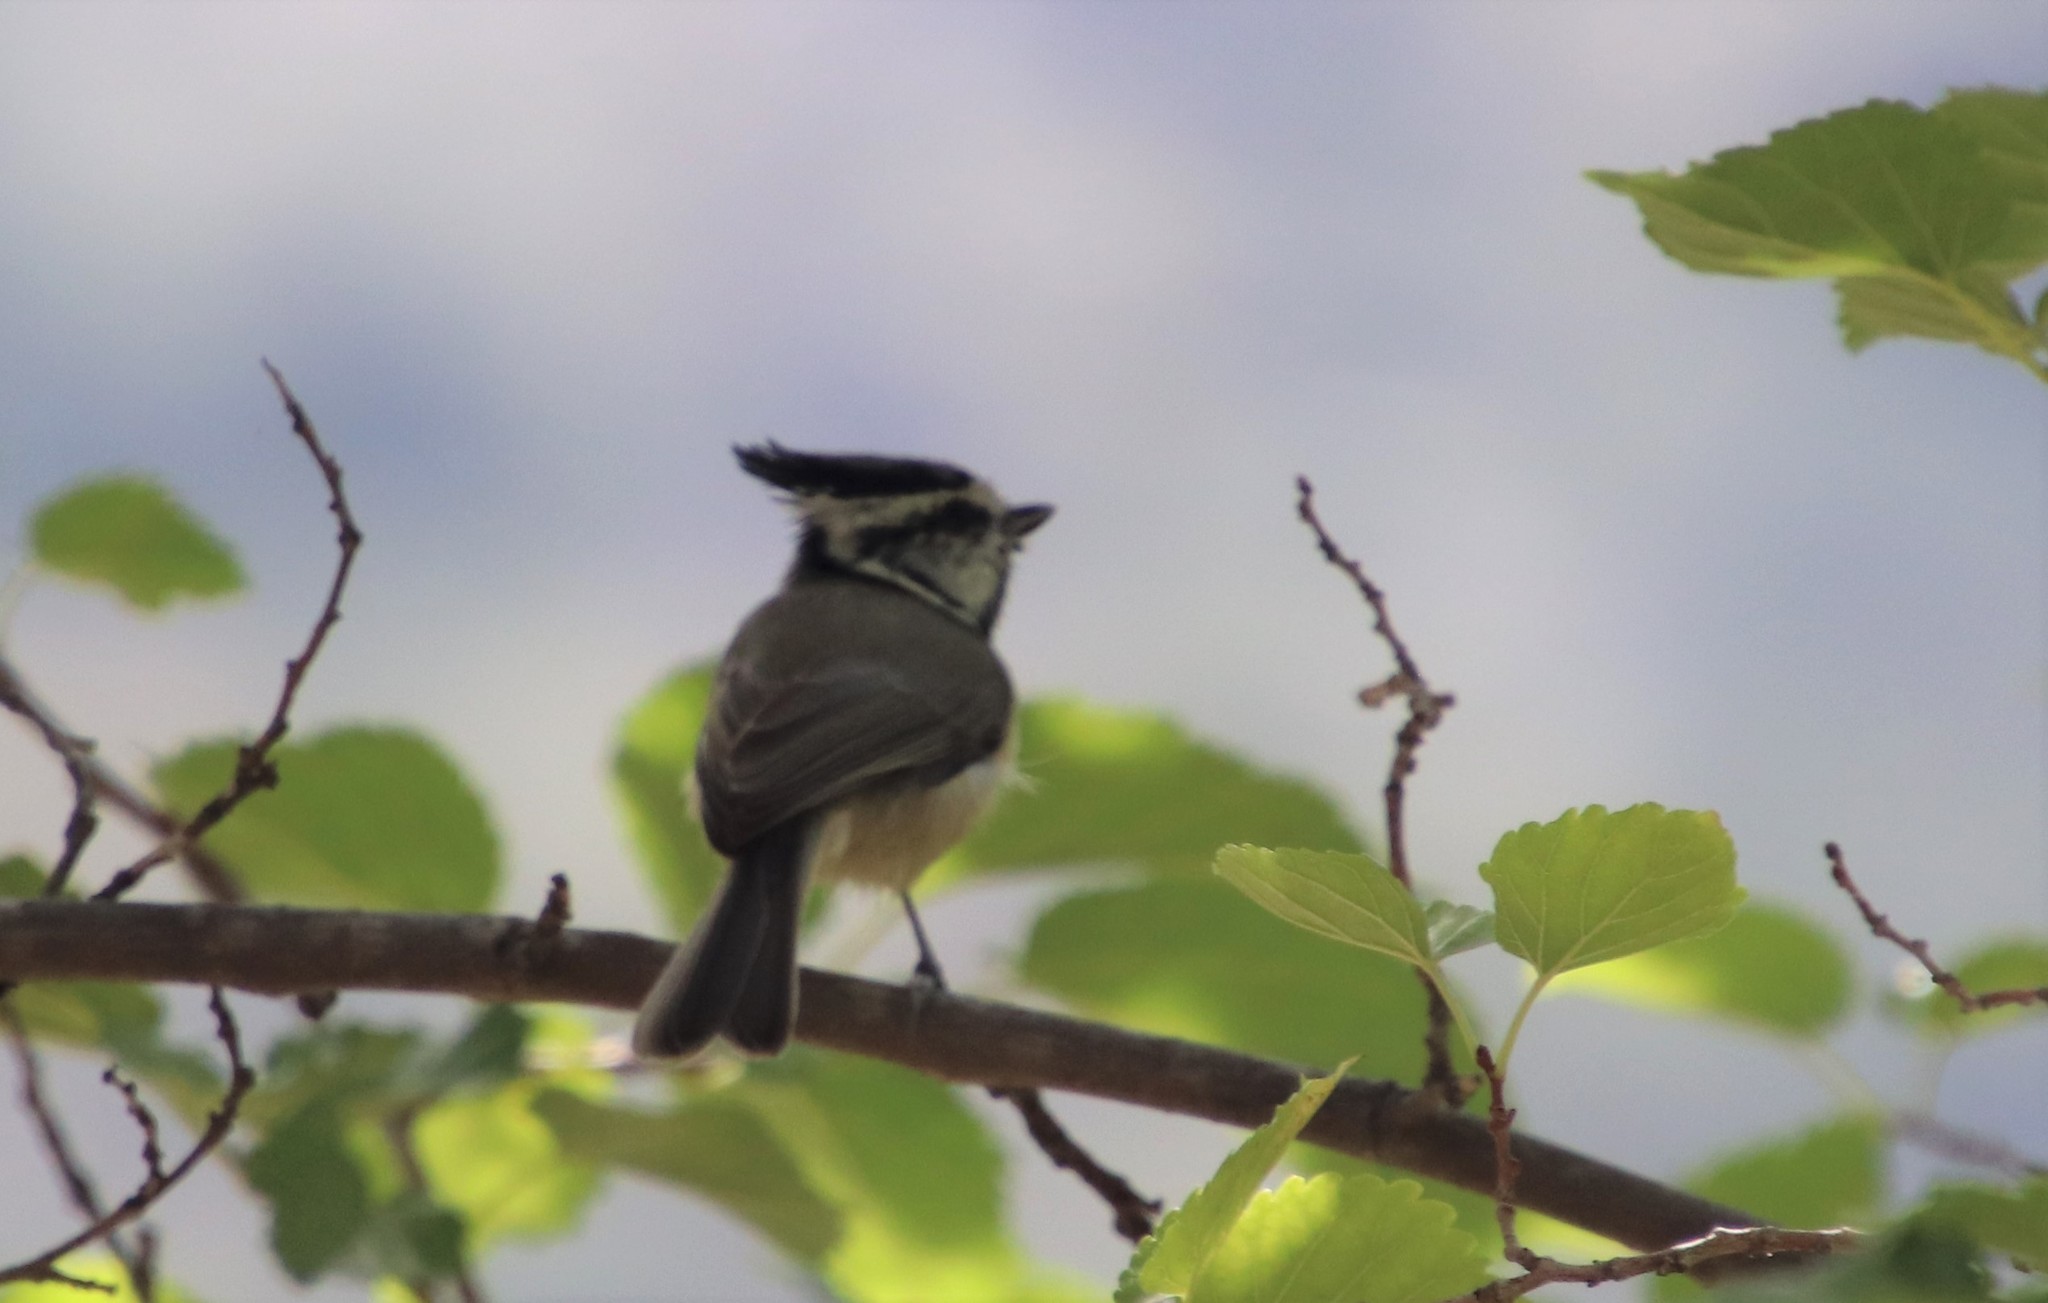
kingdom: Animalia
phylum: Chordata
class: Aves
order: Passeriformes
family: Paridae
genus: Baeolophus
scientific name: Baeolophus wollweberi
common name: Bridled titmouse
